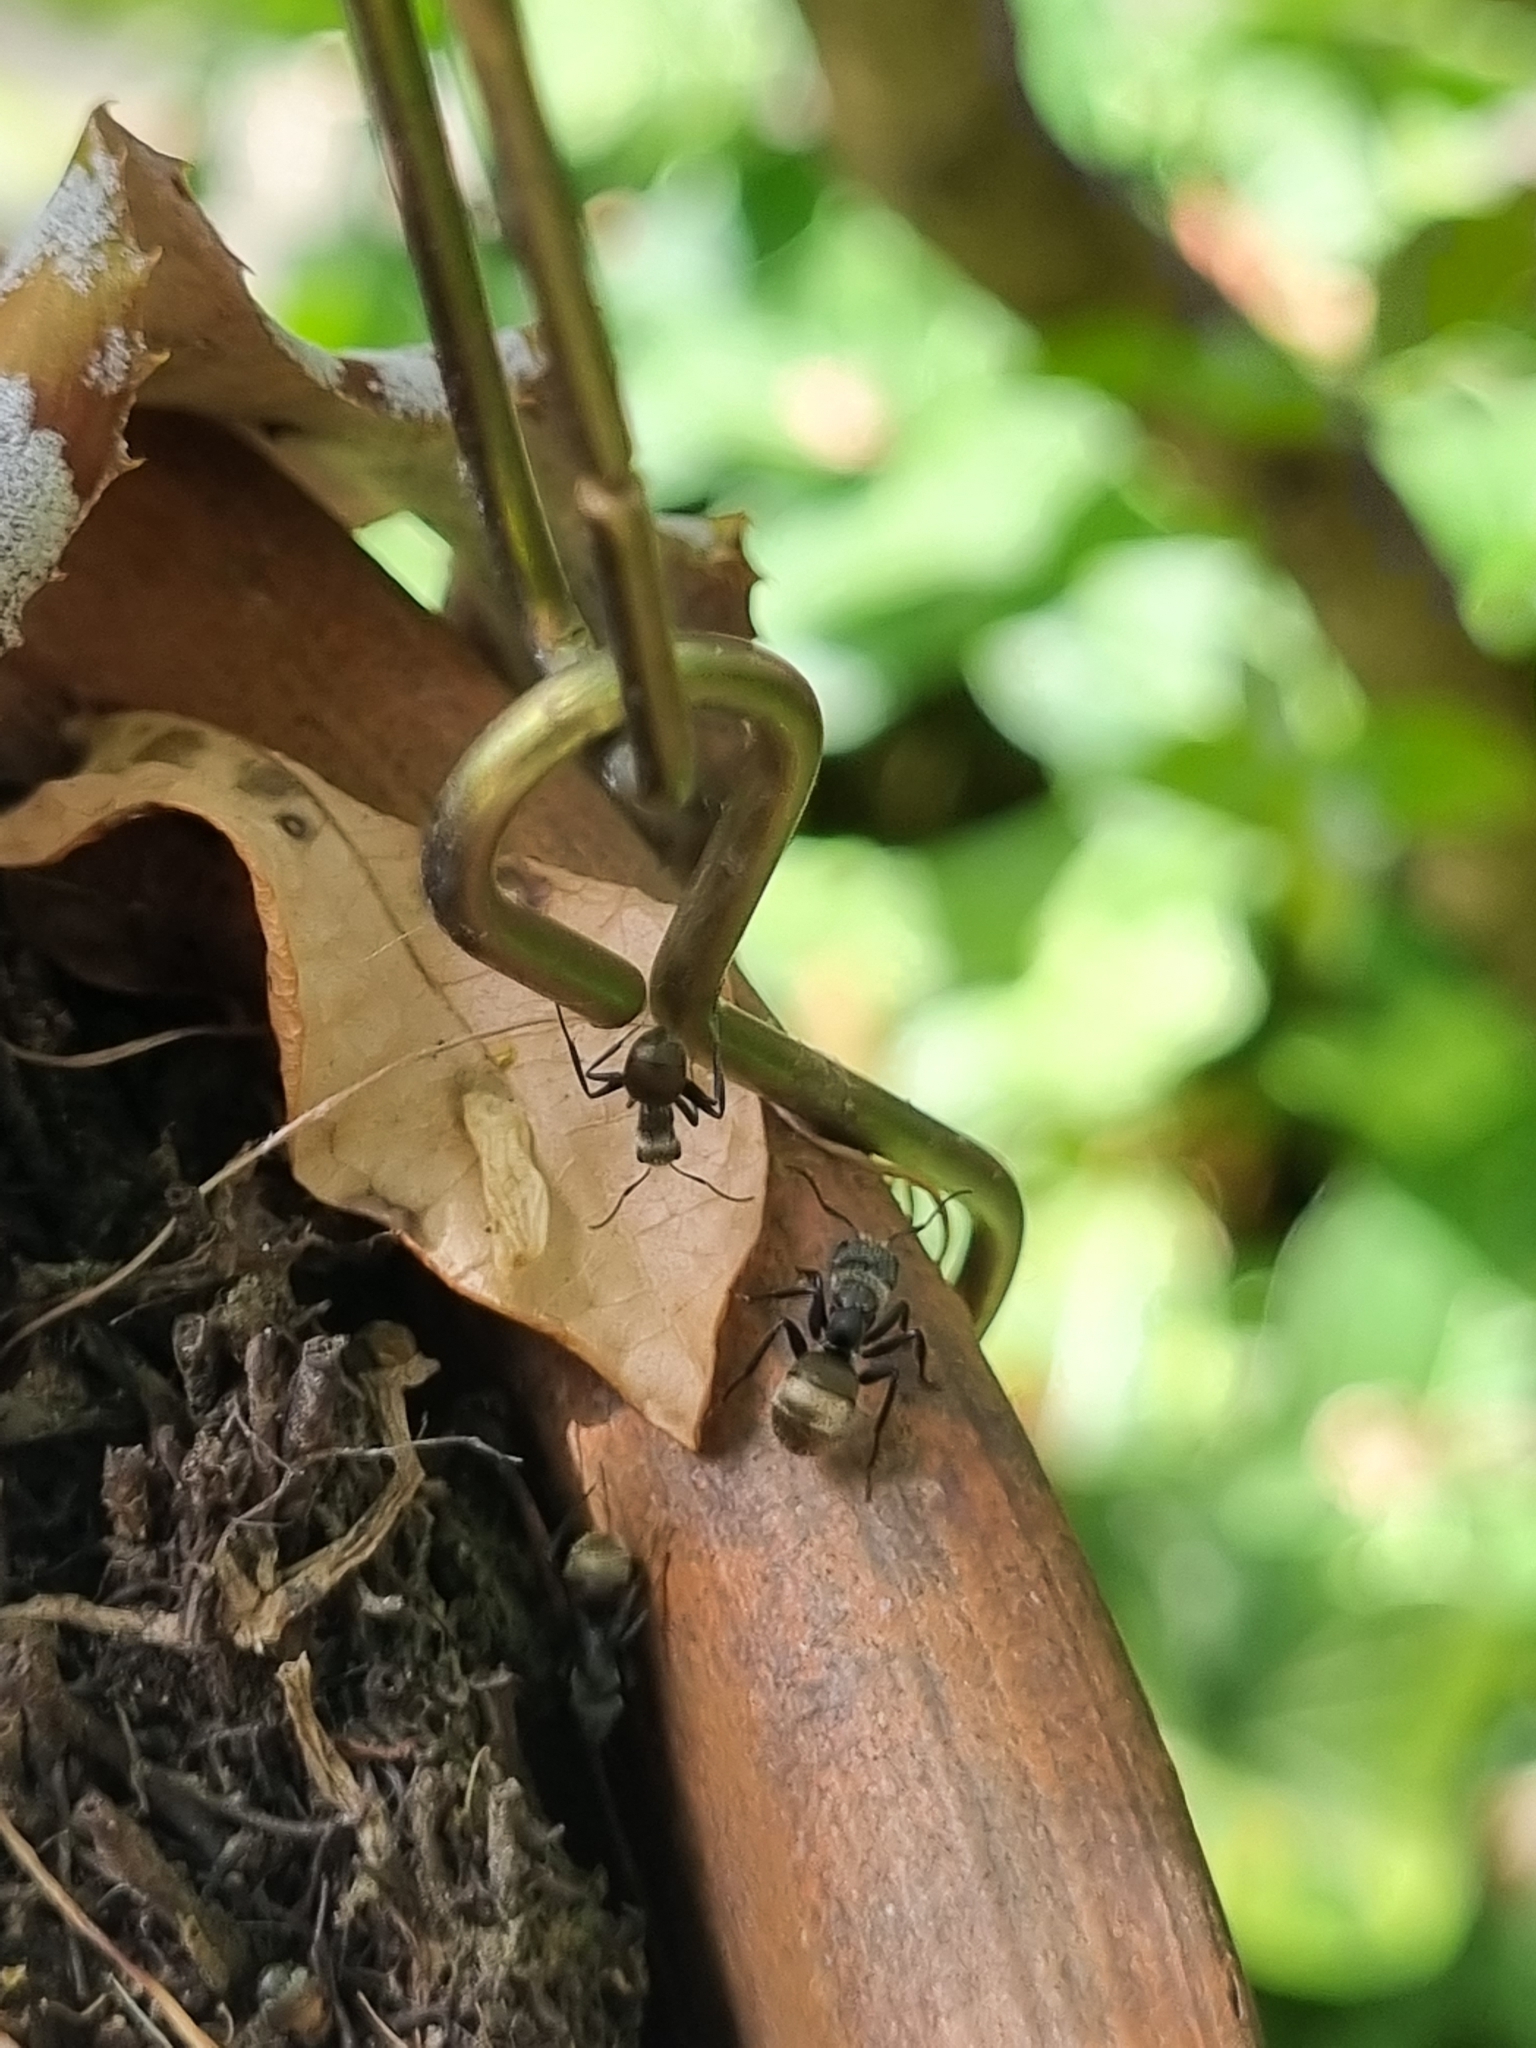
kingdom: Animalia
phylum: Arthropoda
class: Insecta
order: Hymenoptera
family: Formicidae
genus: Camponotus
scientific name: Camponotus arboreus
